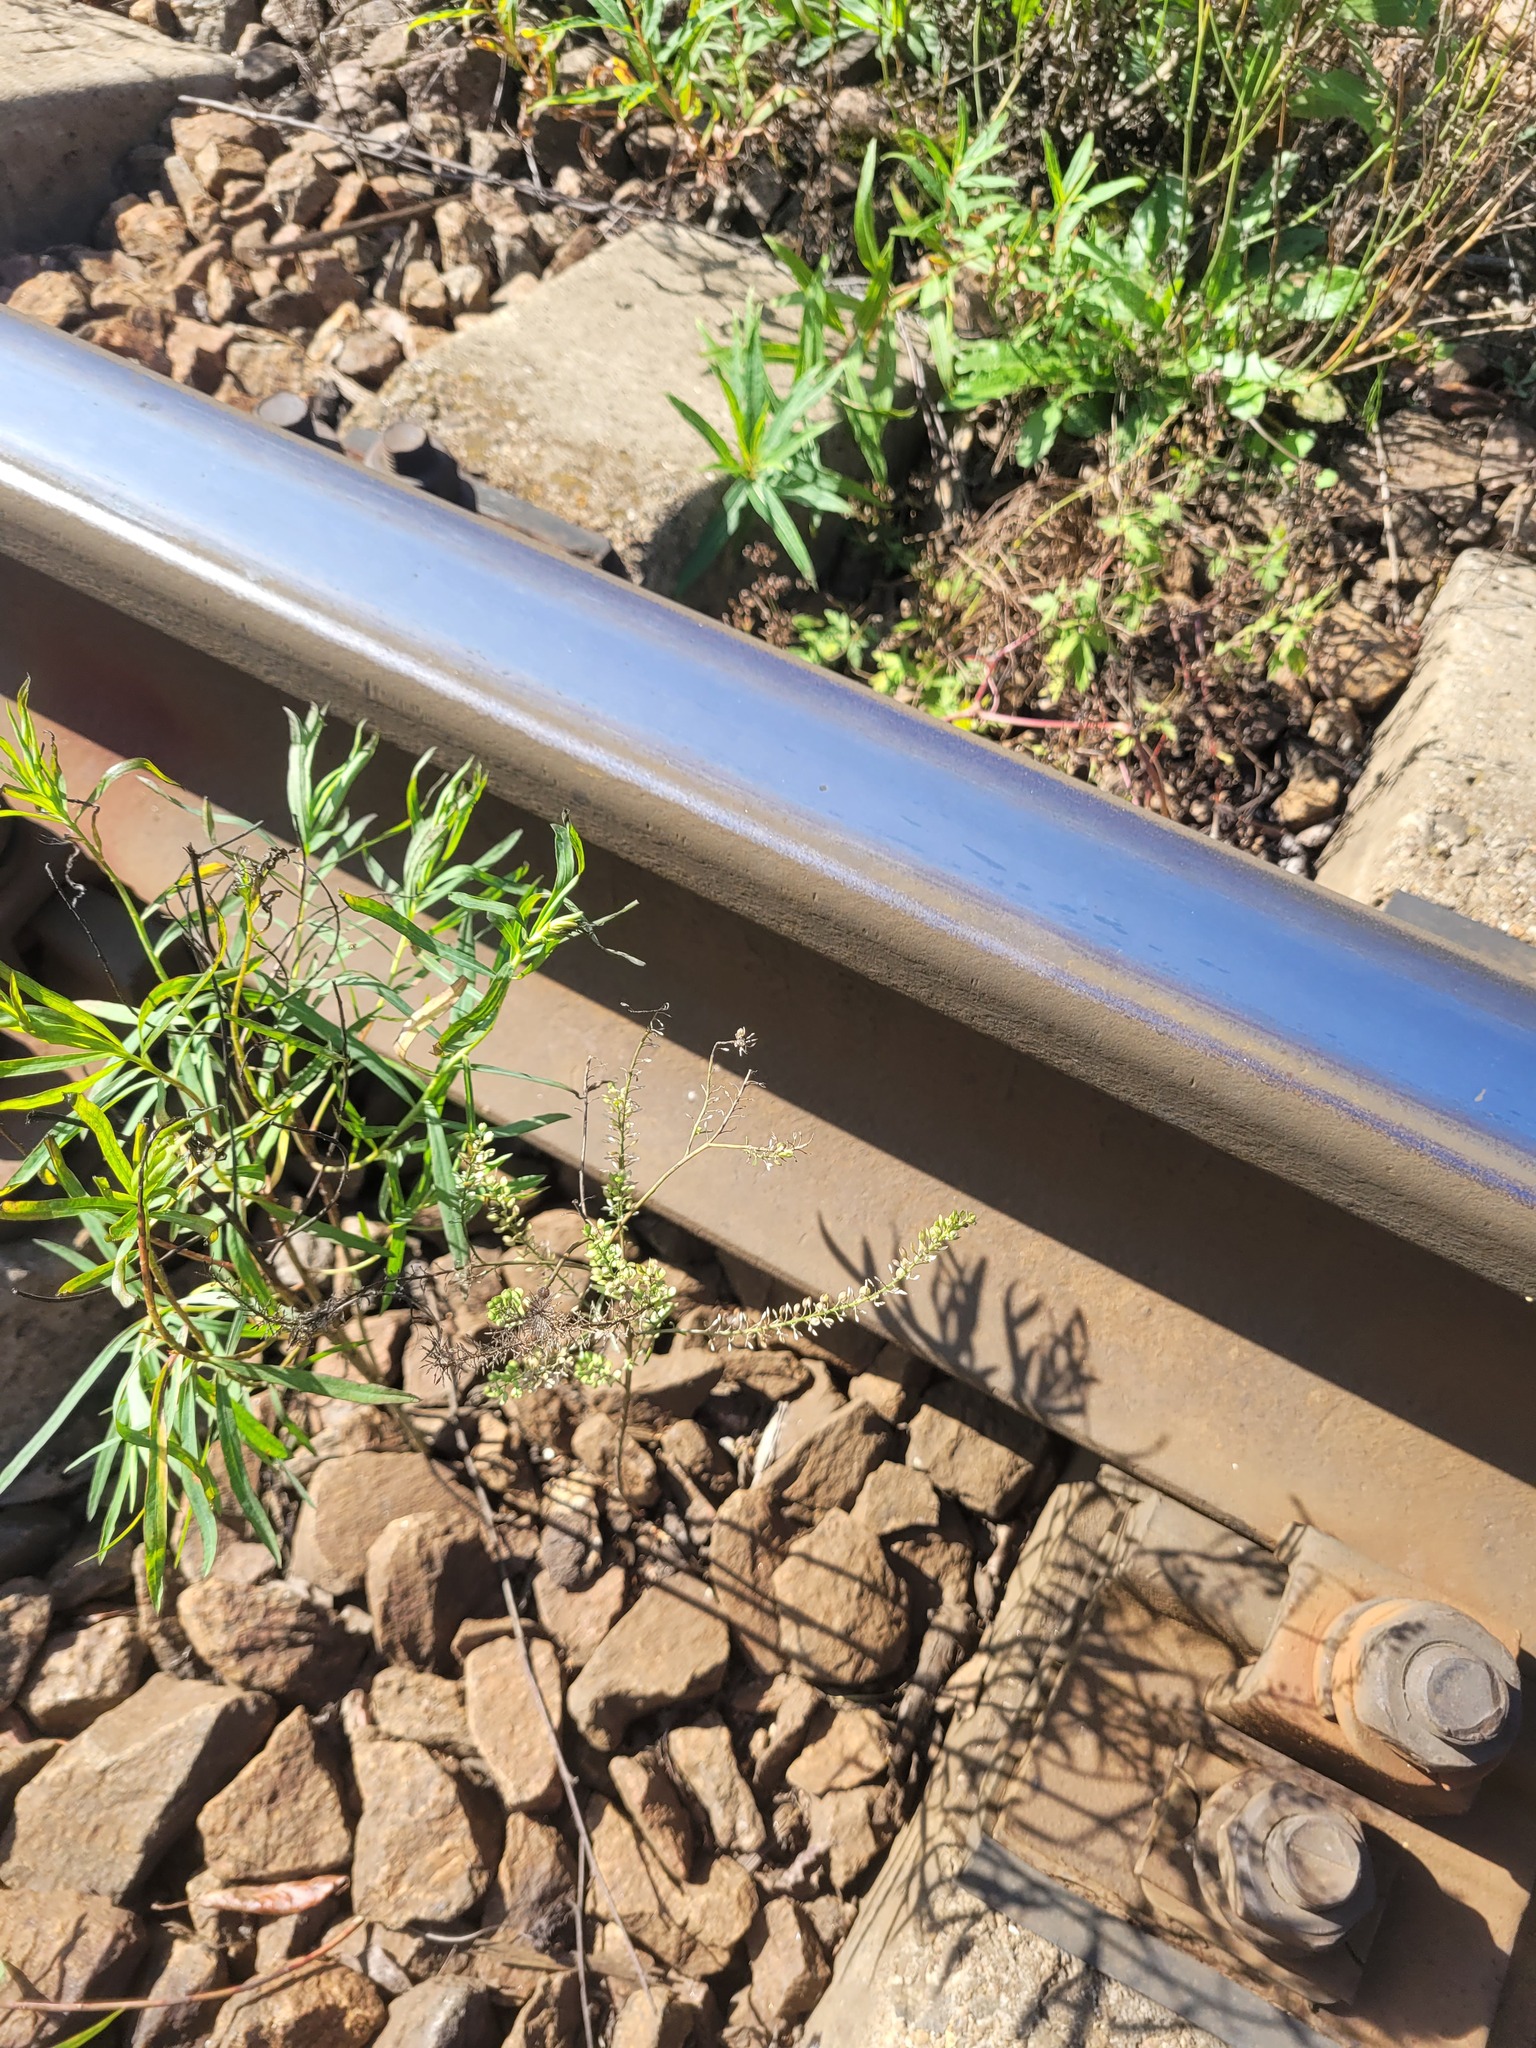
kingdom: Plantae
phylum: Tracheophyta
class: Magnoliopsida
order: Brassicales
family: Brassicaceae
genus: Lepidium
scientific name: Lepidium densiflorum
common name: Miner's pepperwort
